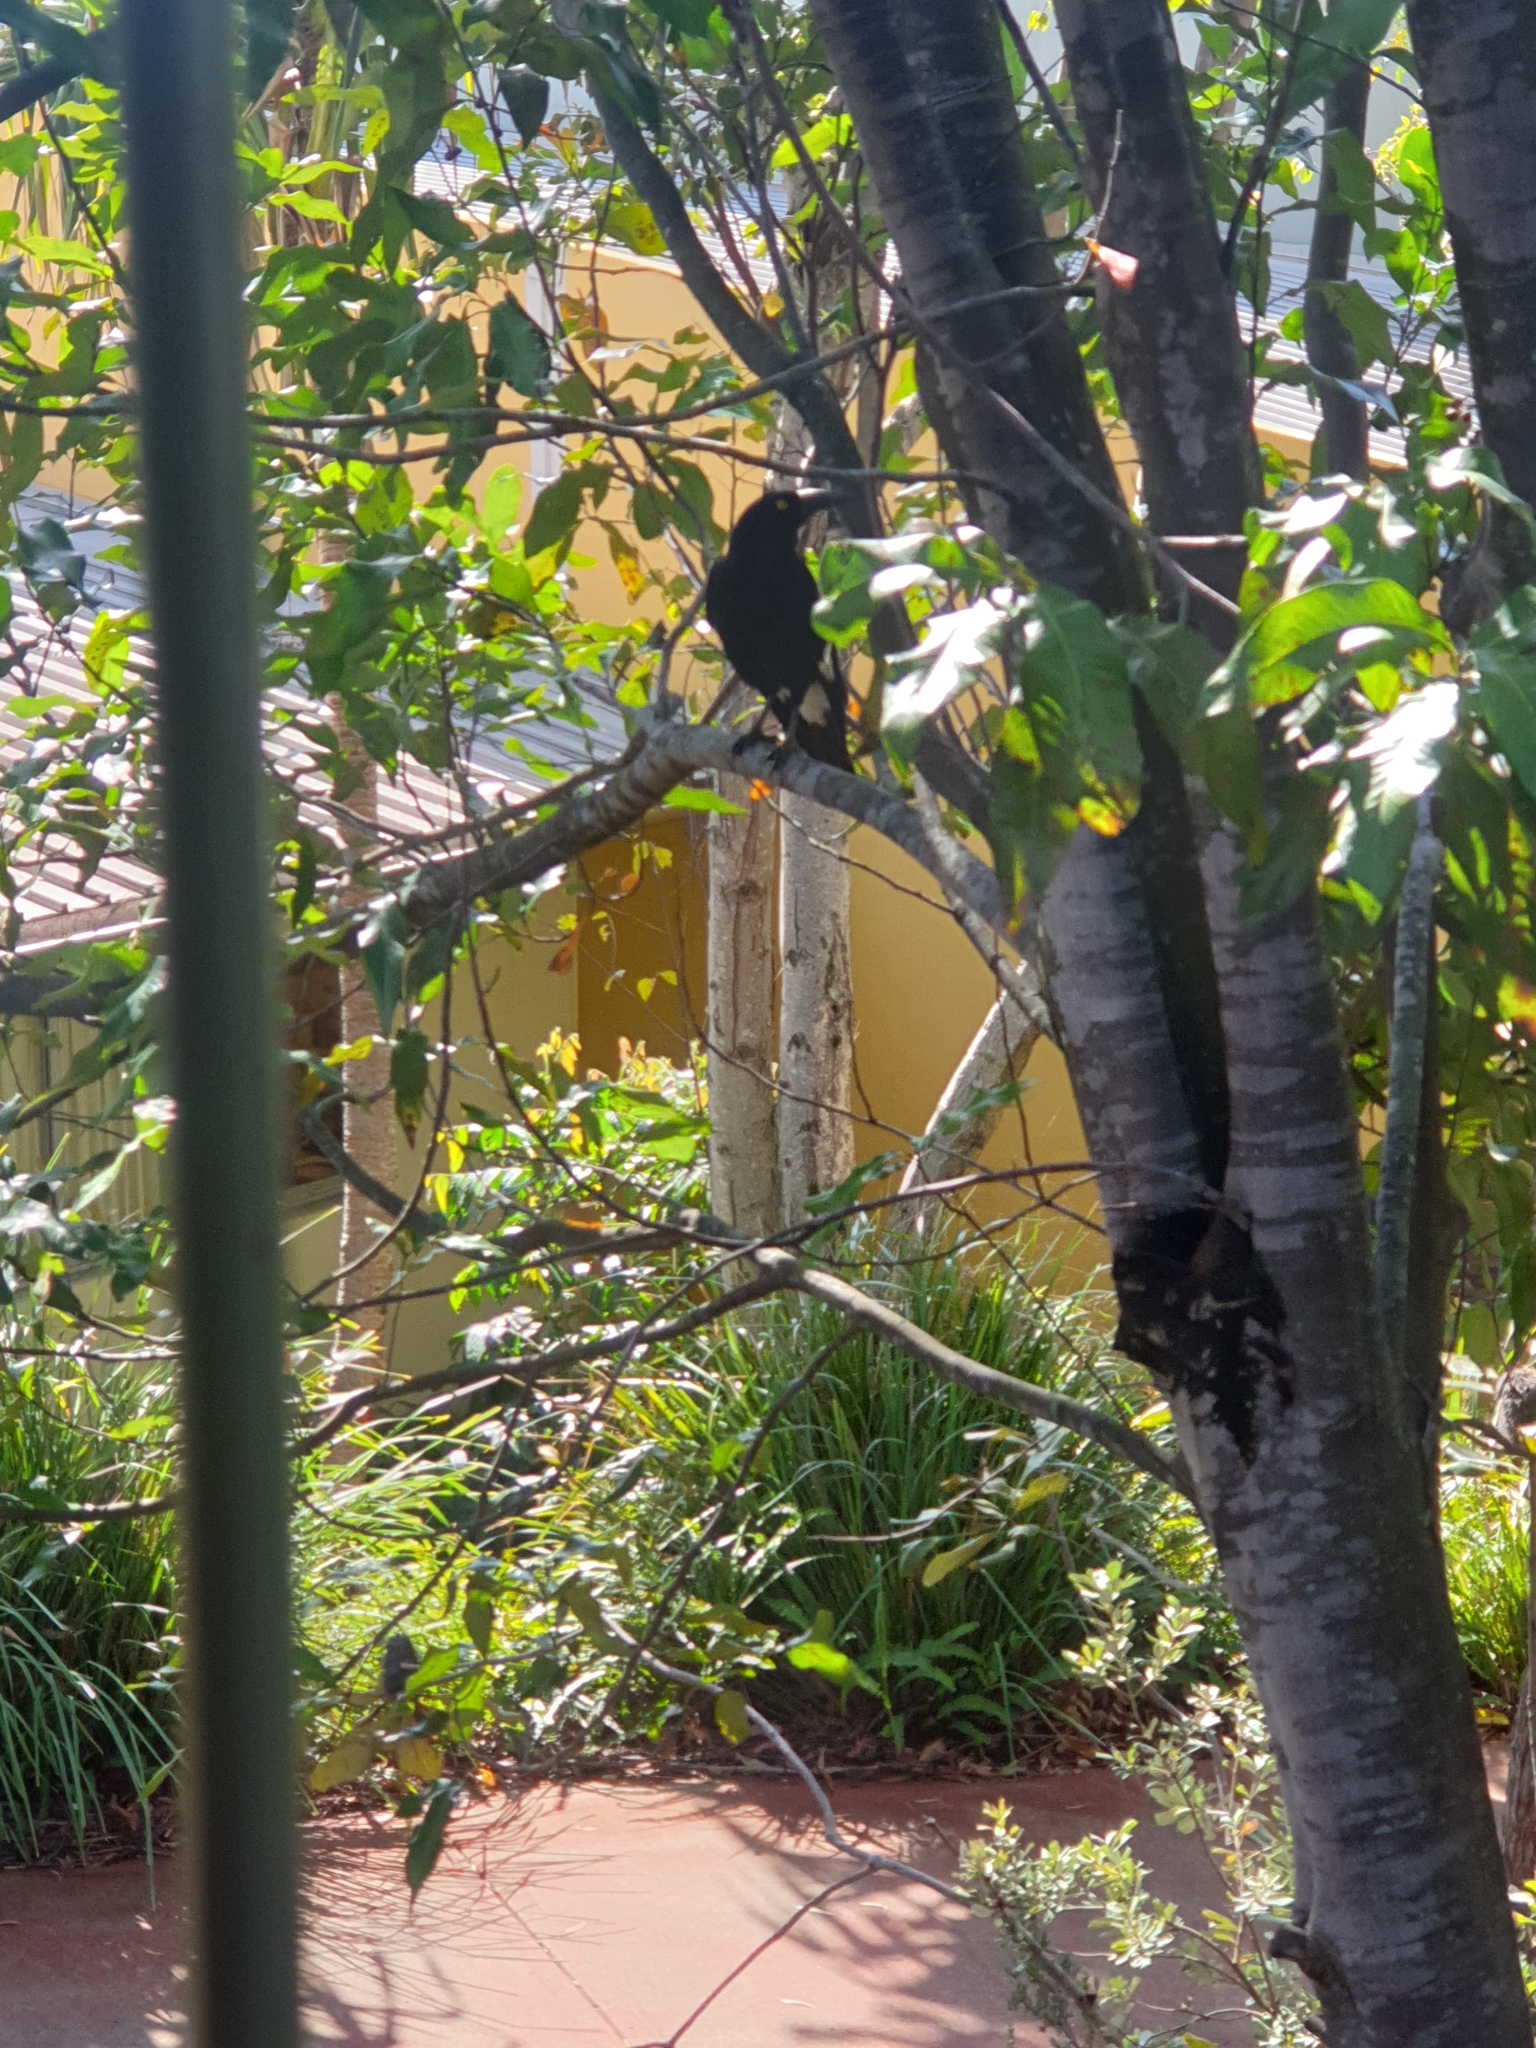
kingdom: Animalia
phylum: Chordata
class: Aves
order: Passeriformes
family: Cracticidae
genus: Strepera
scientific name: Strepera graculina
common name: Pied currawong
